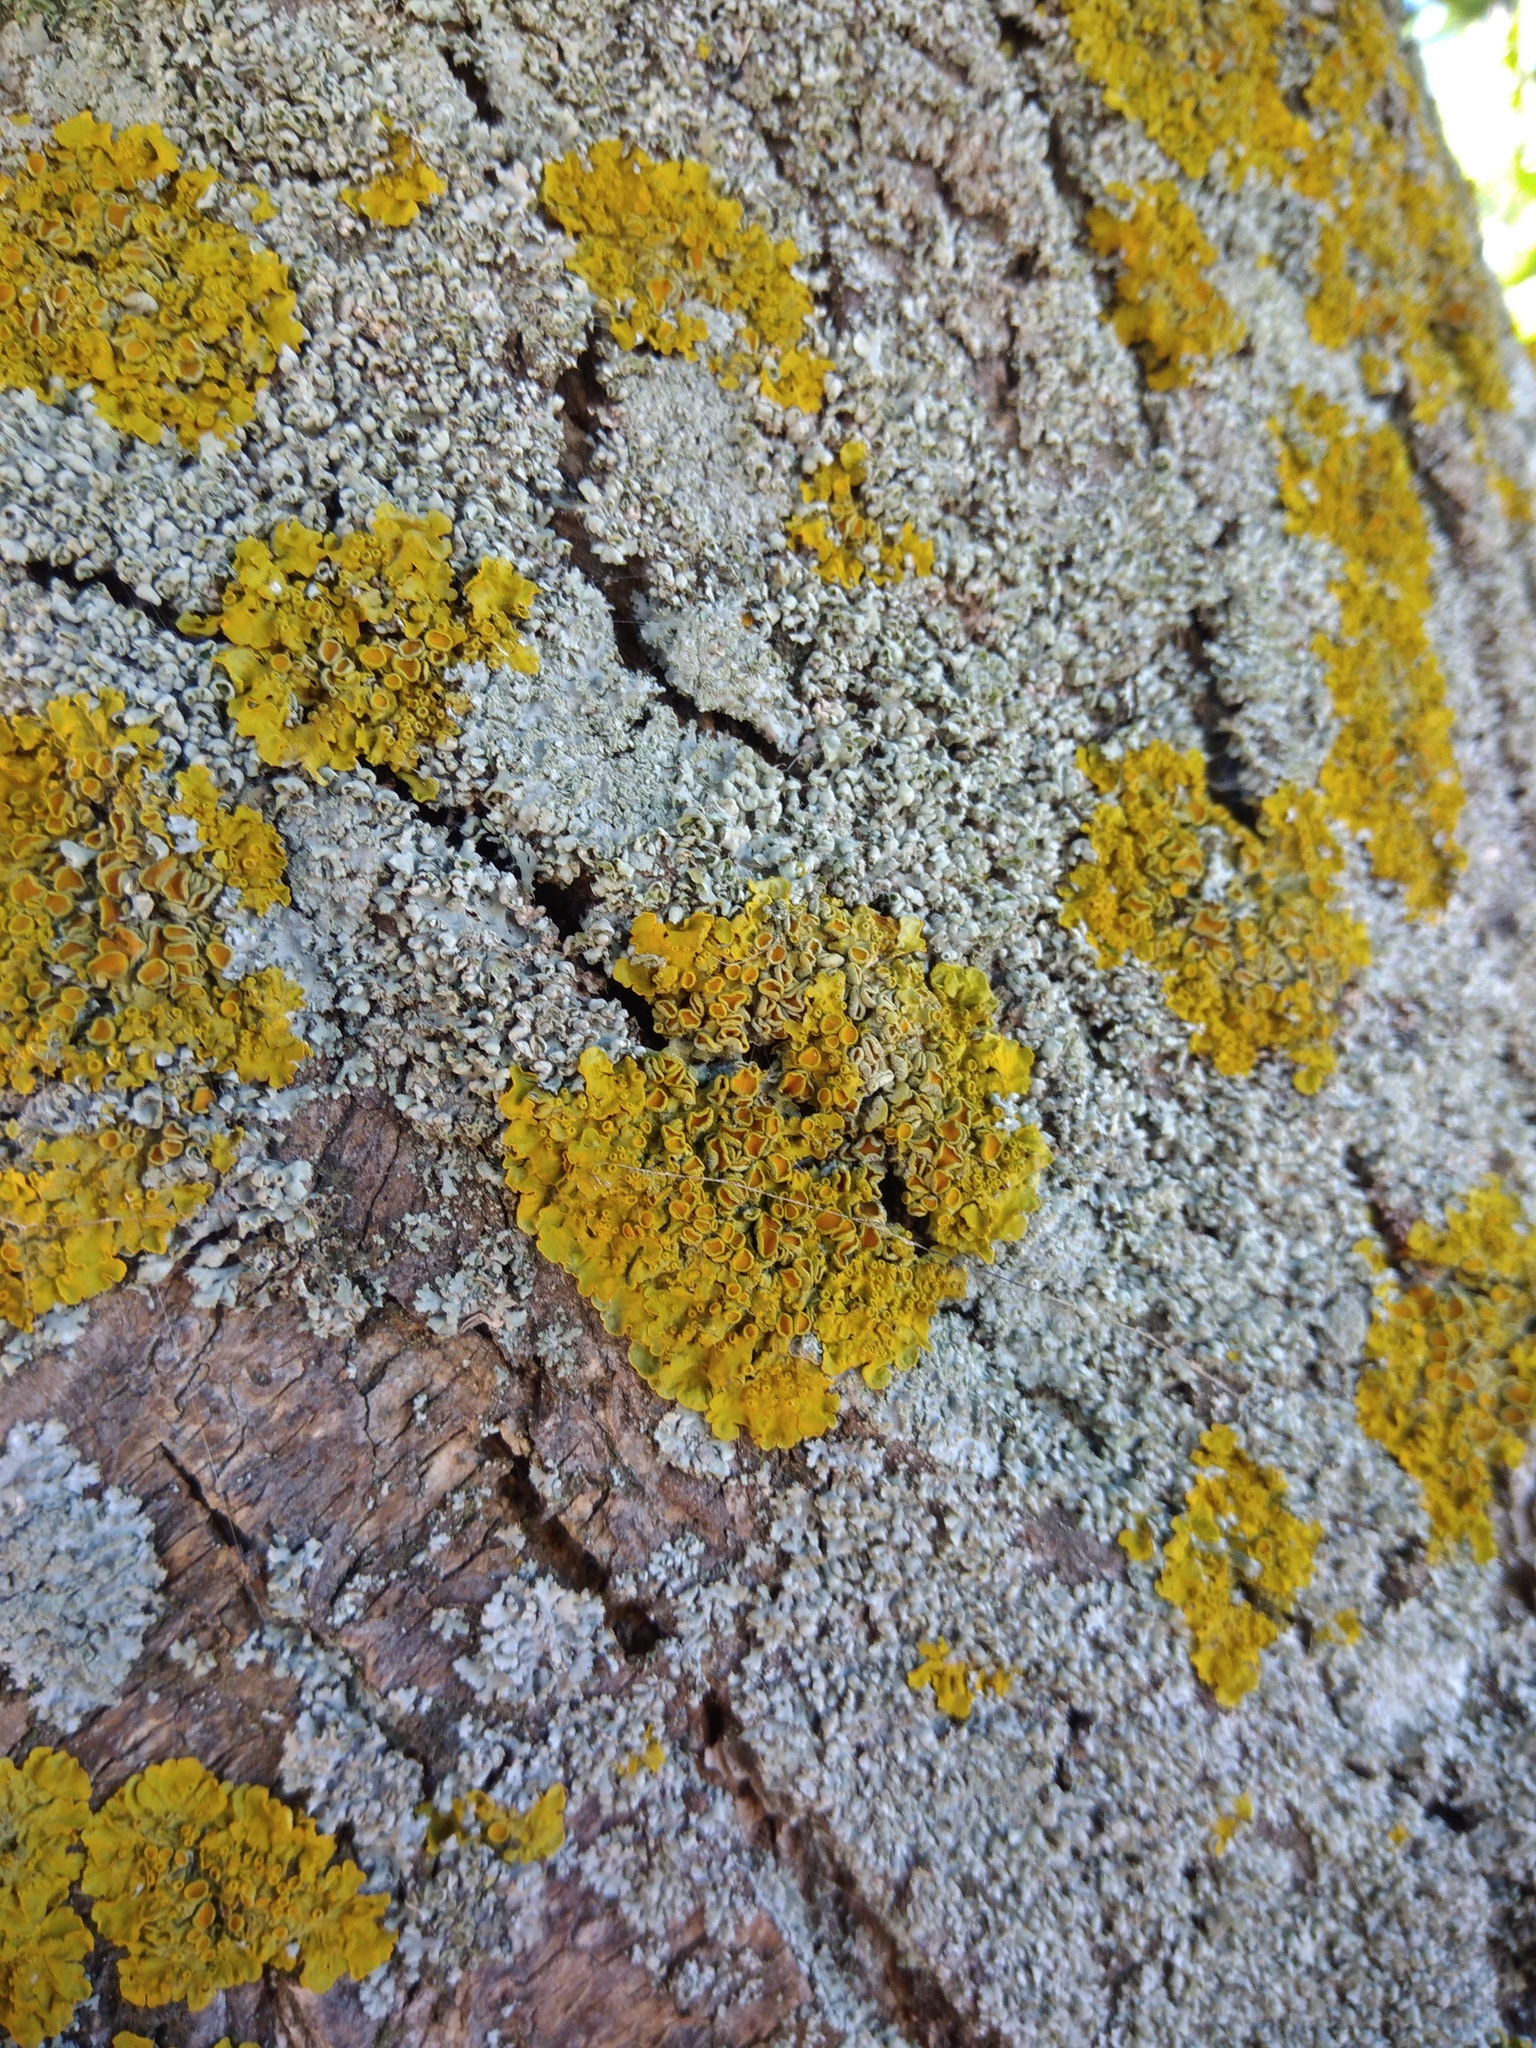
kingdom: Fungi
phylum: Ascomycota
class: Lecanoromycetes
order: Teloschistales
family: Teloschistaceae
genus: Xanthoria
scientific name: Xanthoria parietina
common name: Common orange lichen
